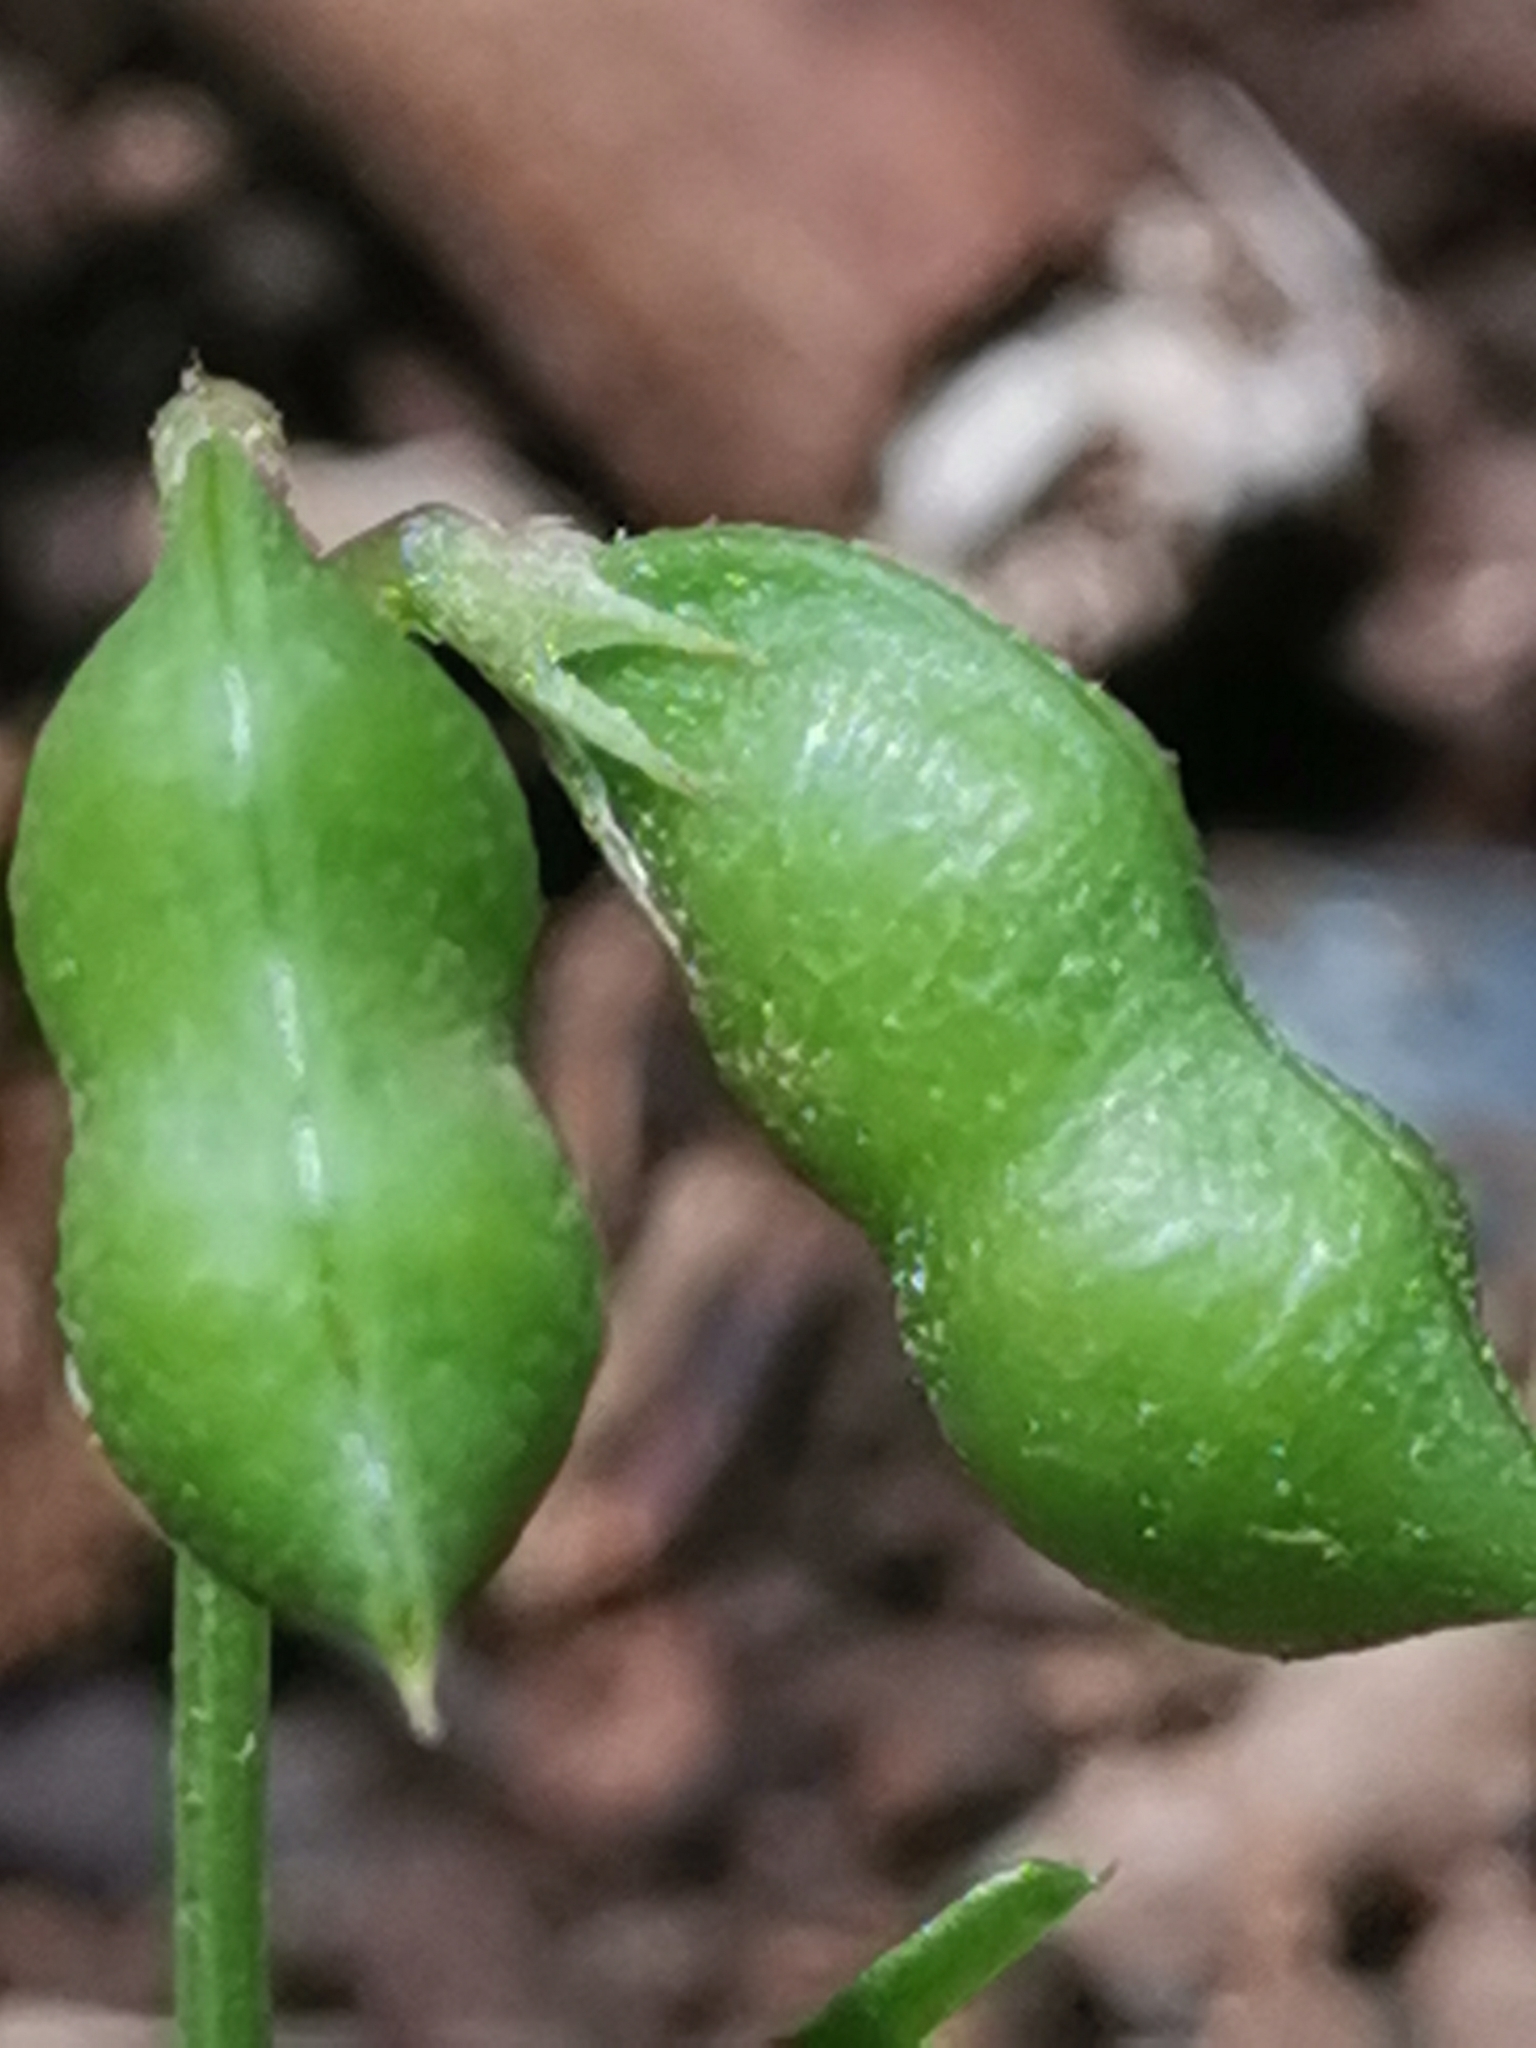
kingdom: Plantae
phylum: Tracheophyta
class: Magnoliopsida
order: Fabales
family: Fabaceae
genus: Vicia
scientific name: Vicia hirsuta
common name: Tiny vetch
